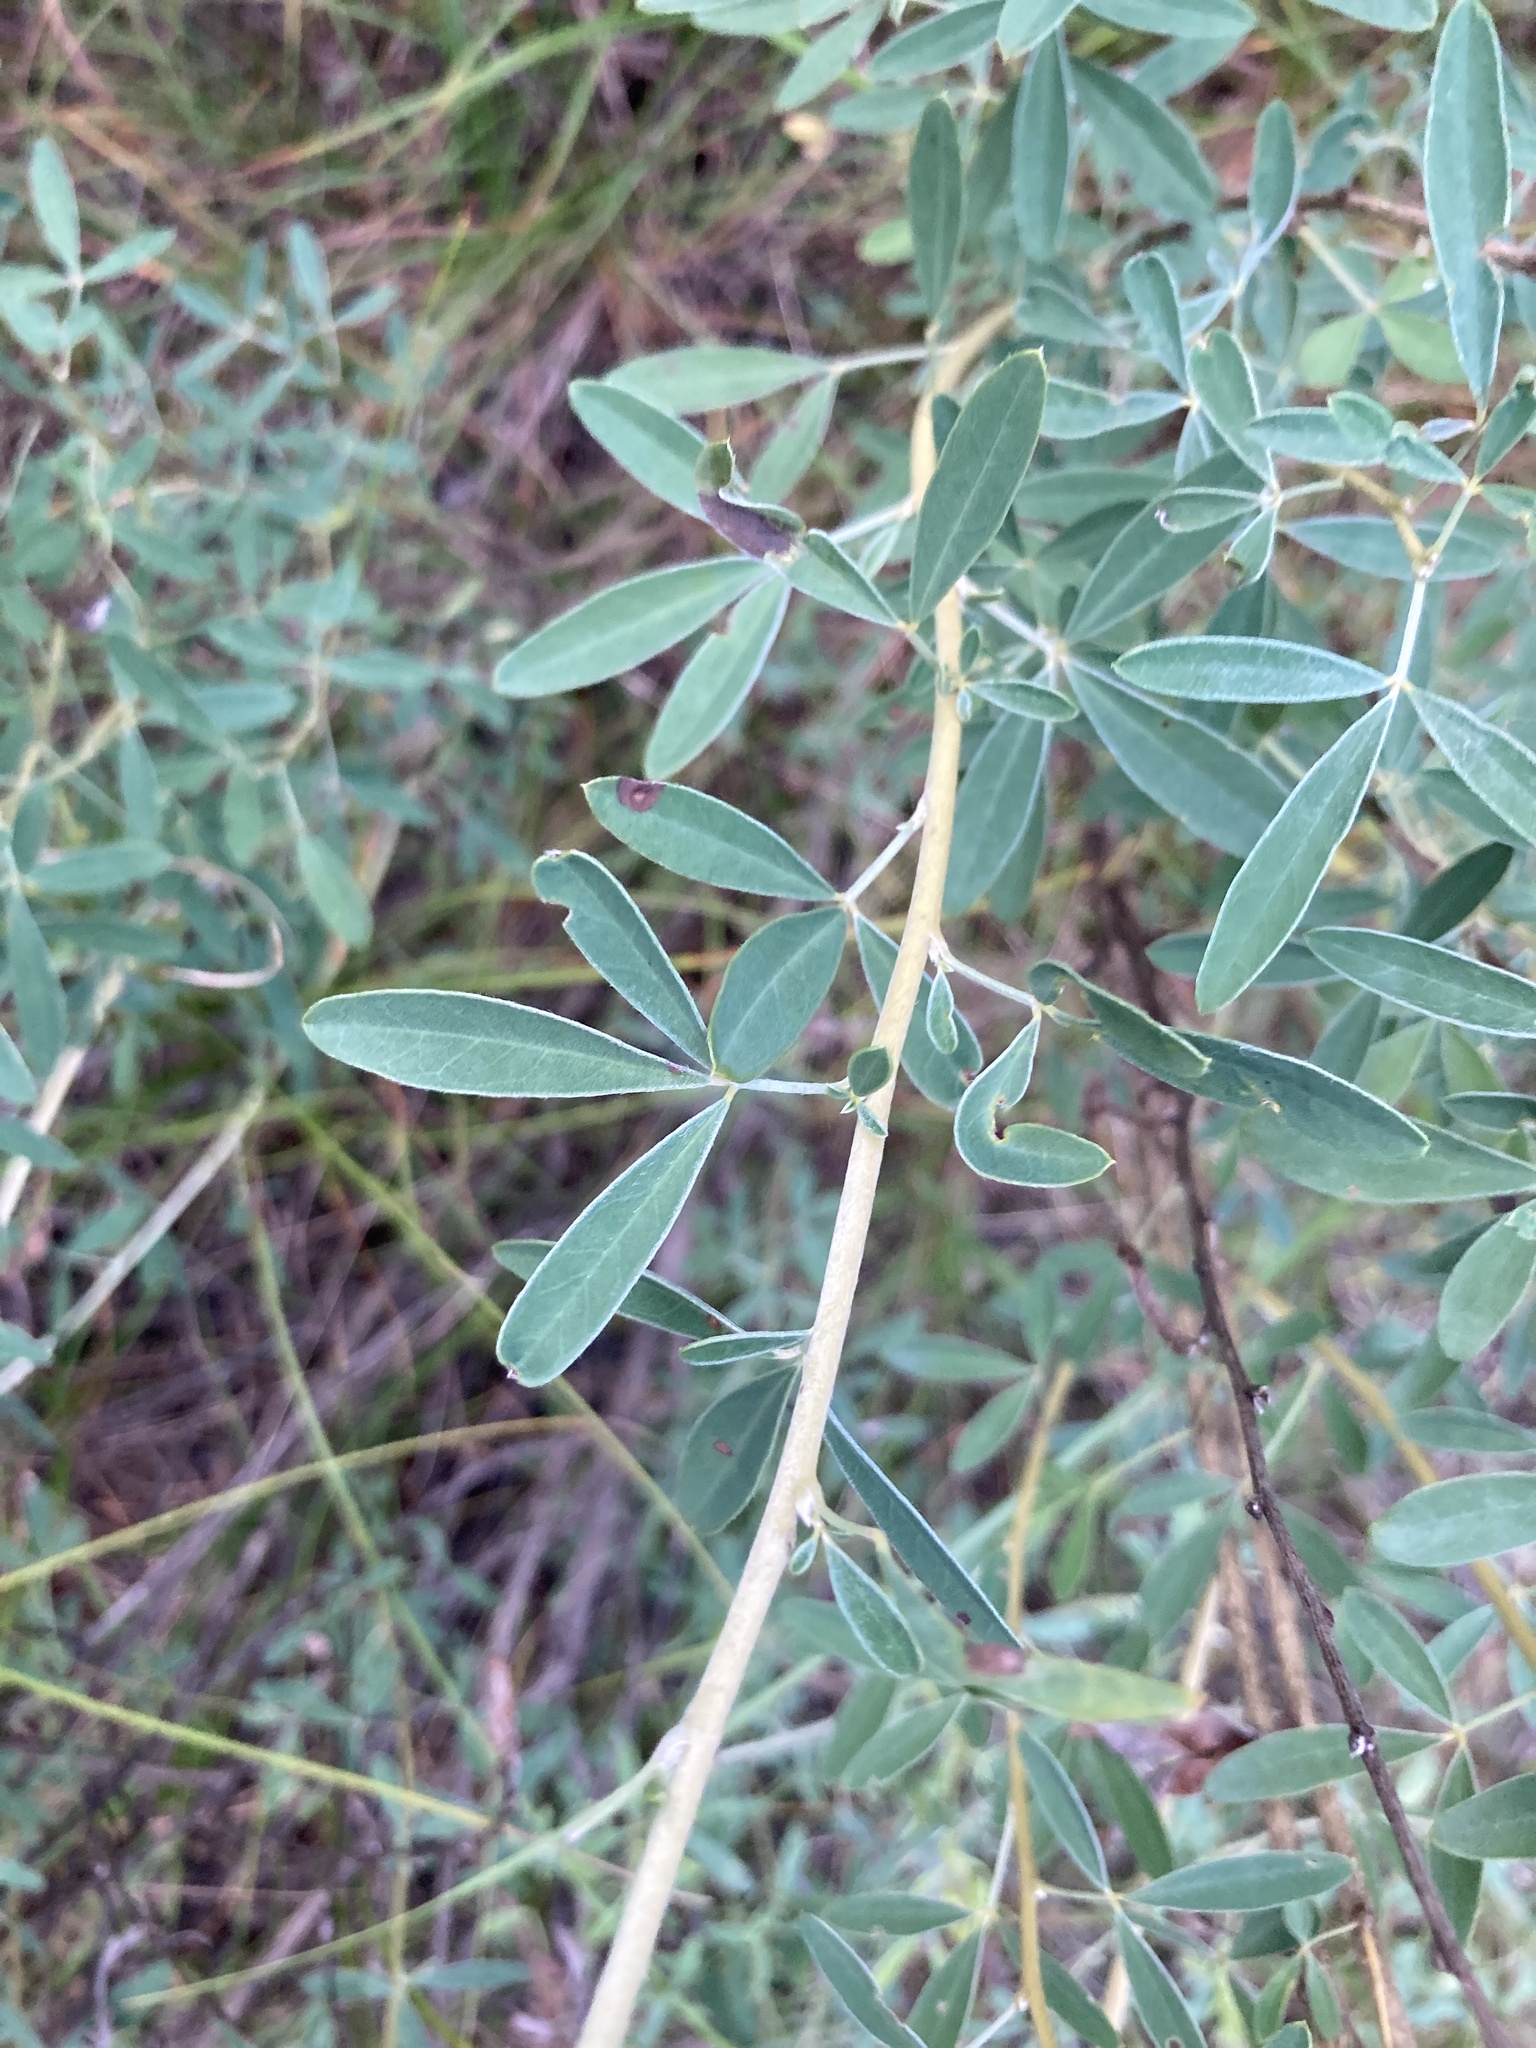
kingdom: Plantae
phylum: Tracheophyta
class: Magnoliopsida
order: Fabales
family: Fabaceae
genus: Chamaecytisus
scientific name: Chamaecytisus ruthenicus
